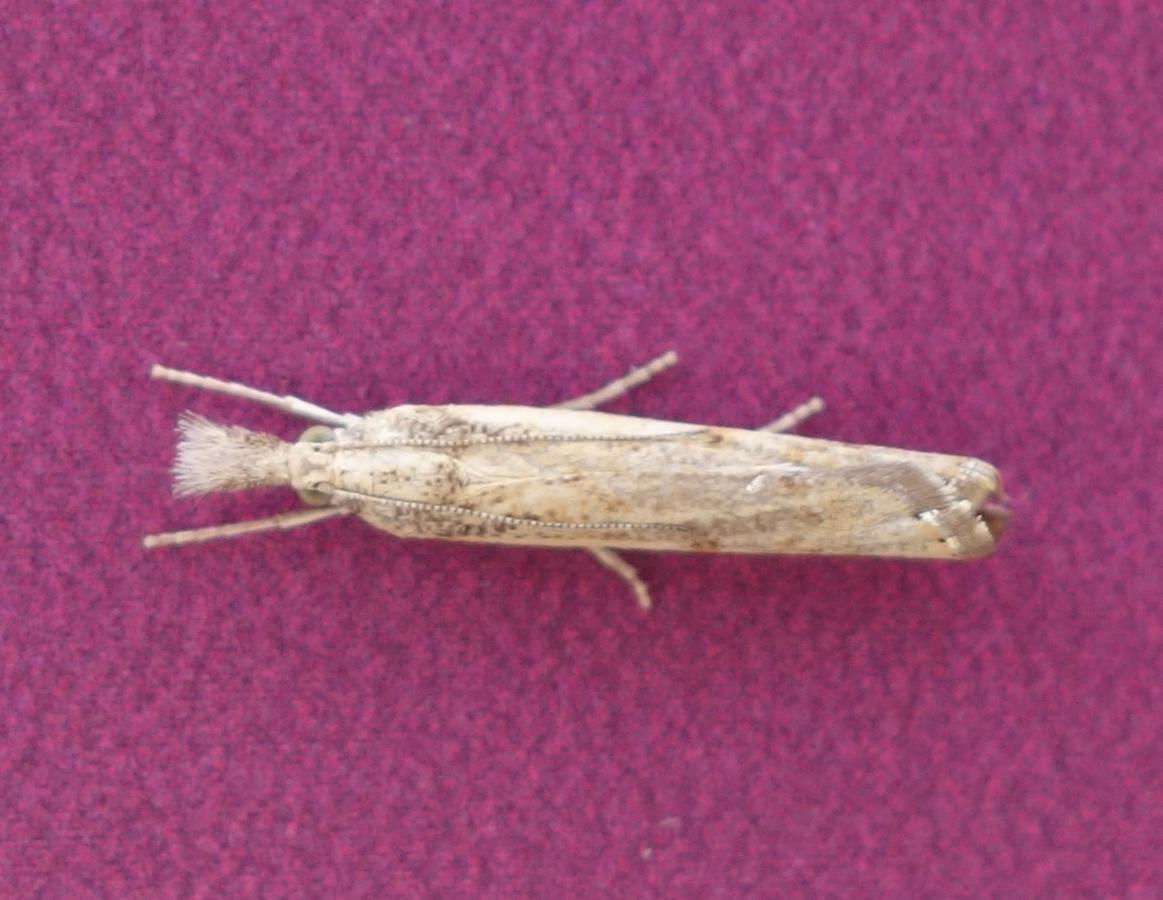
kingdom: Animalia
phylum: Arthropoda
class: Insecta
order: Lepidoptera
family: Crambidae
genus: Agriphila
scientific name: Agriphila inquinatella
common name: Barred grass-veneer
